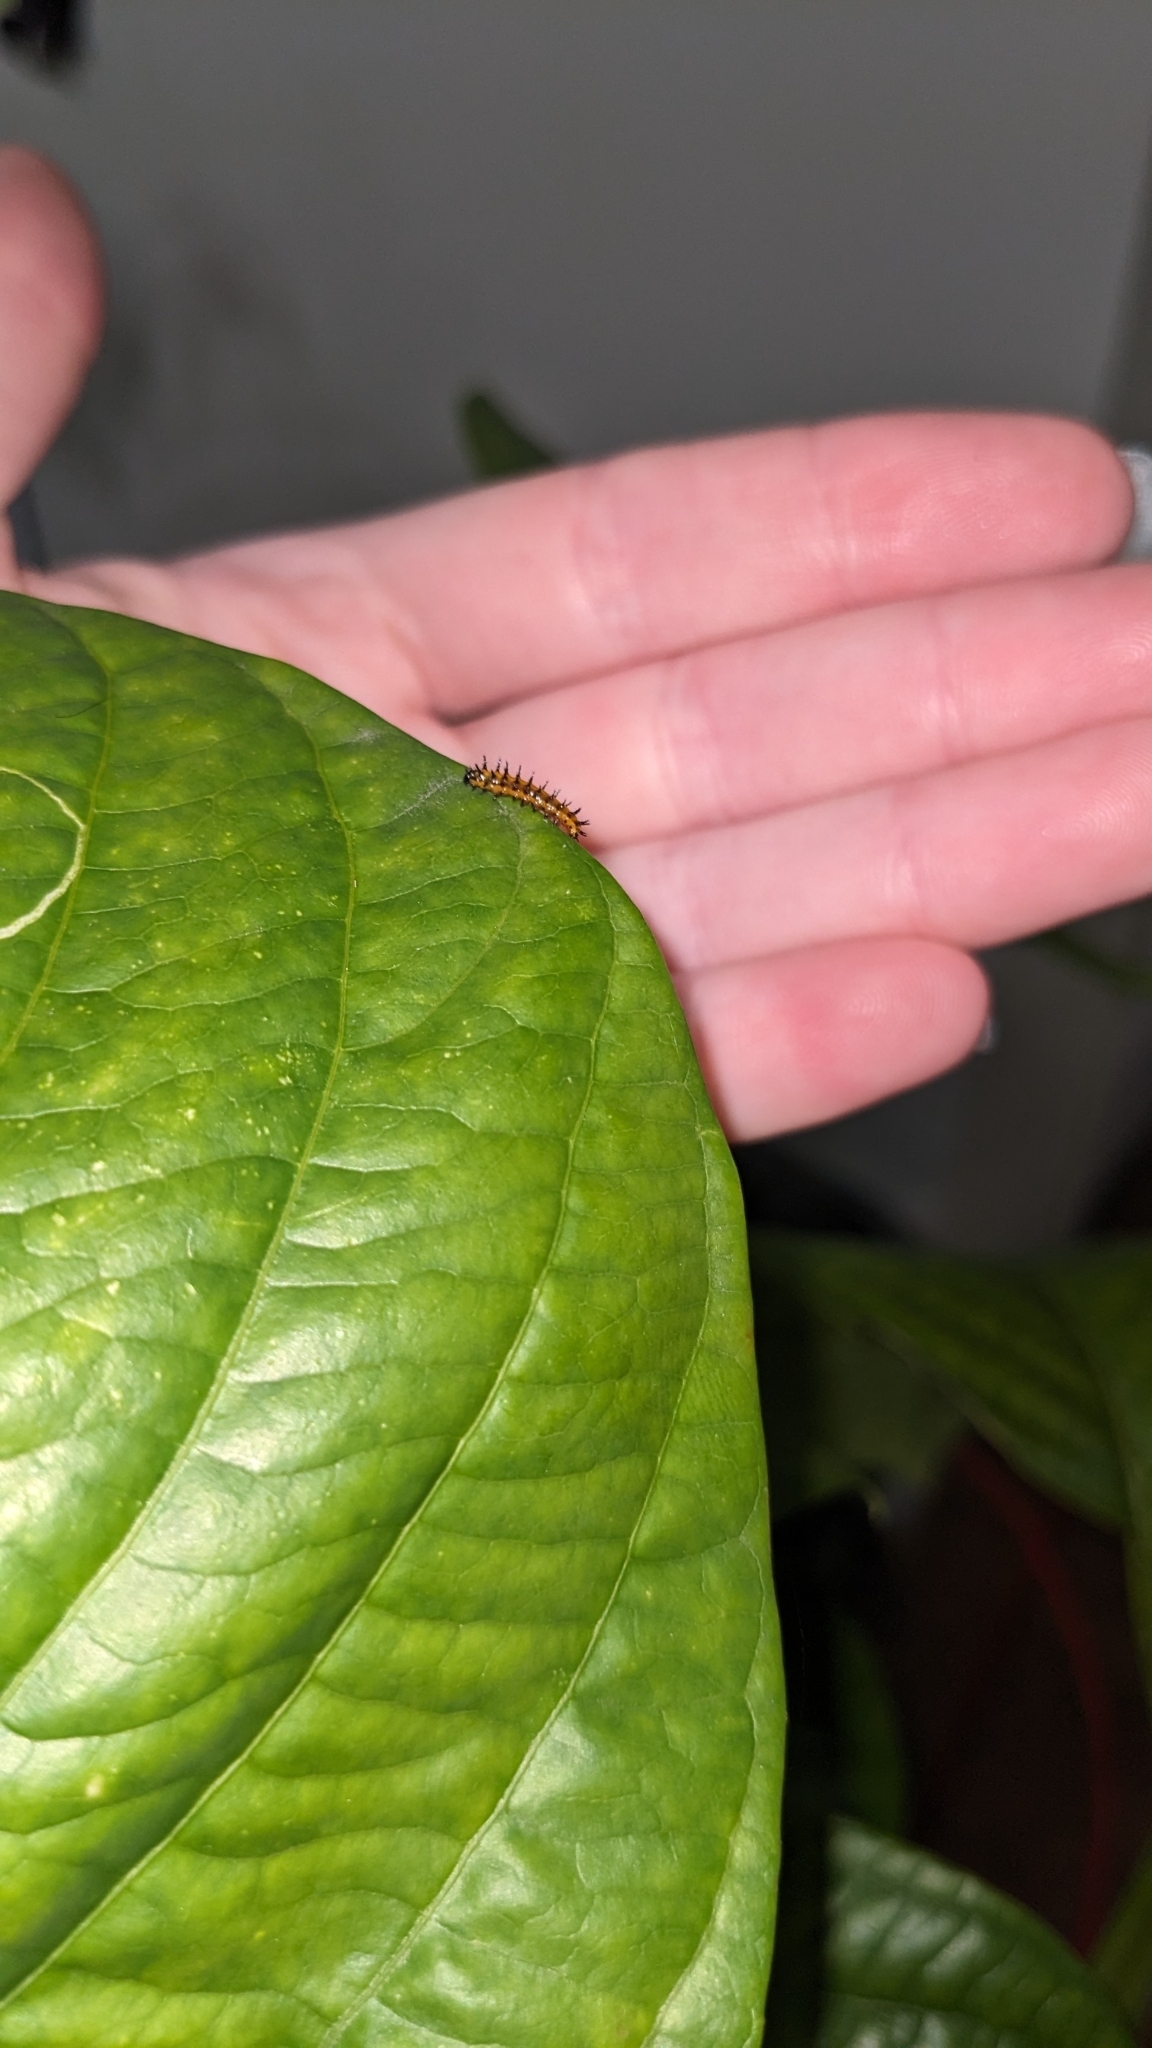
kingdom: Animalia
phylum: Arthropoda
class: Insecta
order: Lepidoptera
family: Nymphalidae
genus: Dione
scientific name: Dione vanillae
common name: Gulf fritillary
